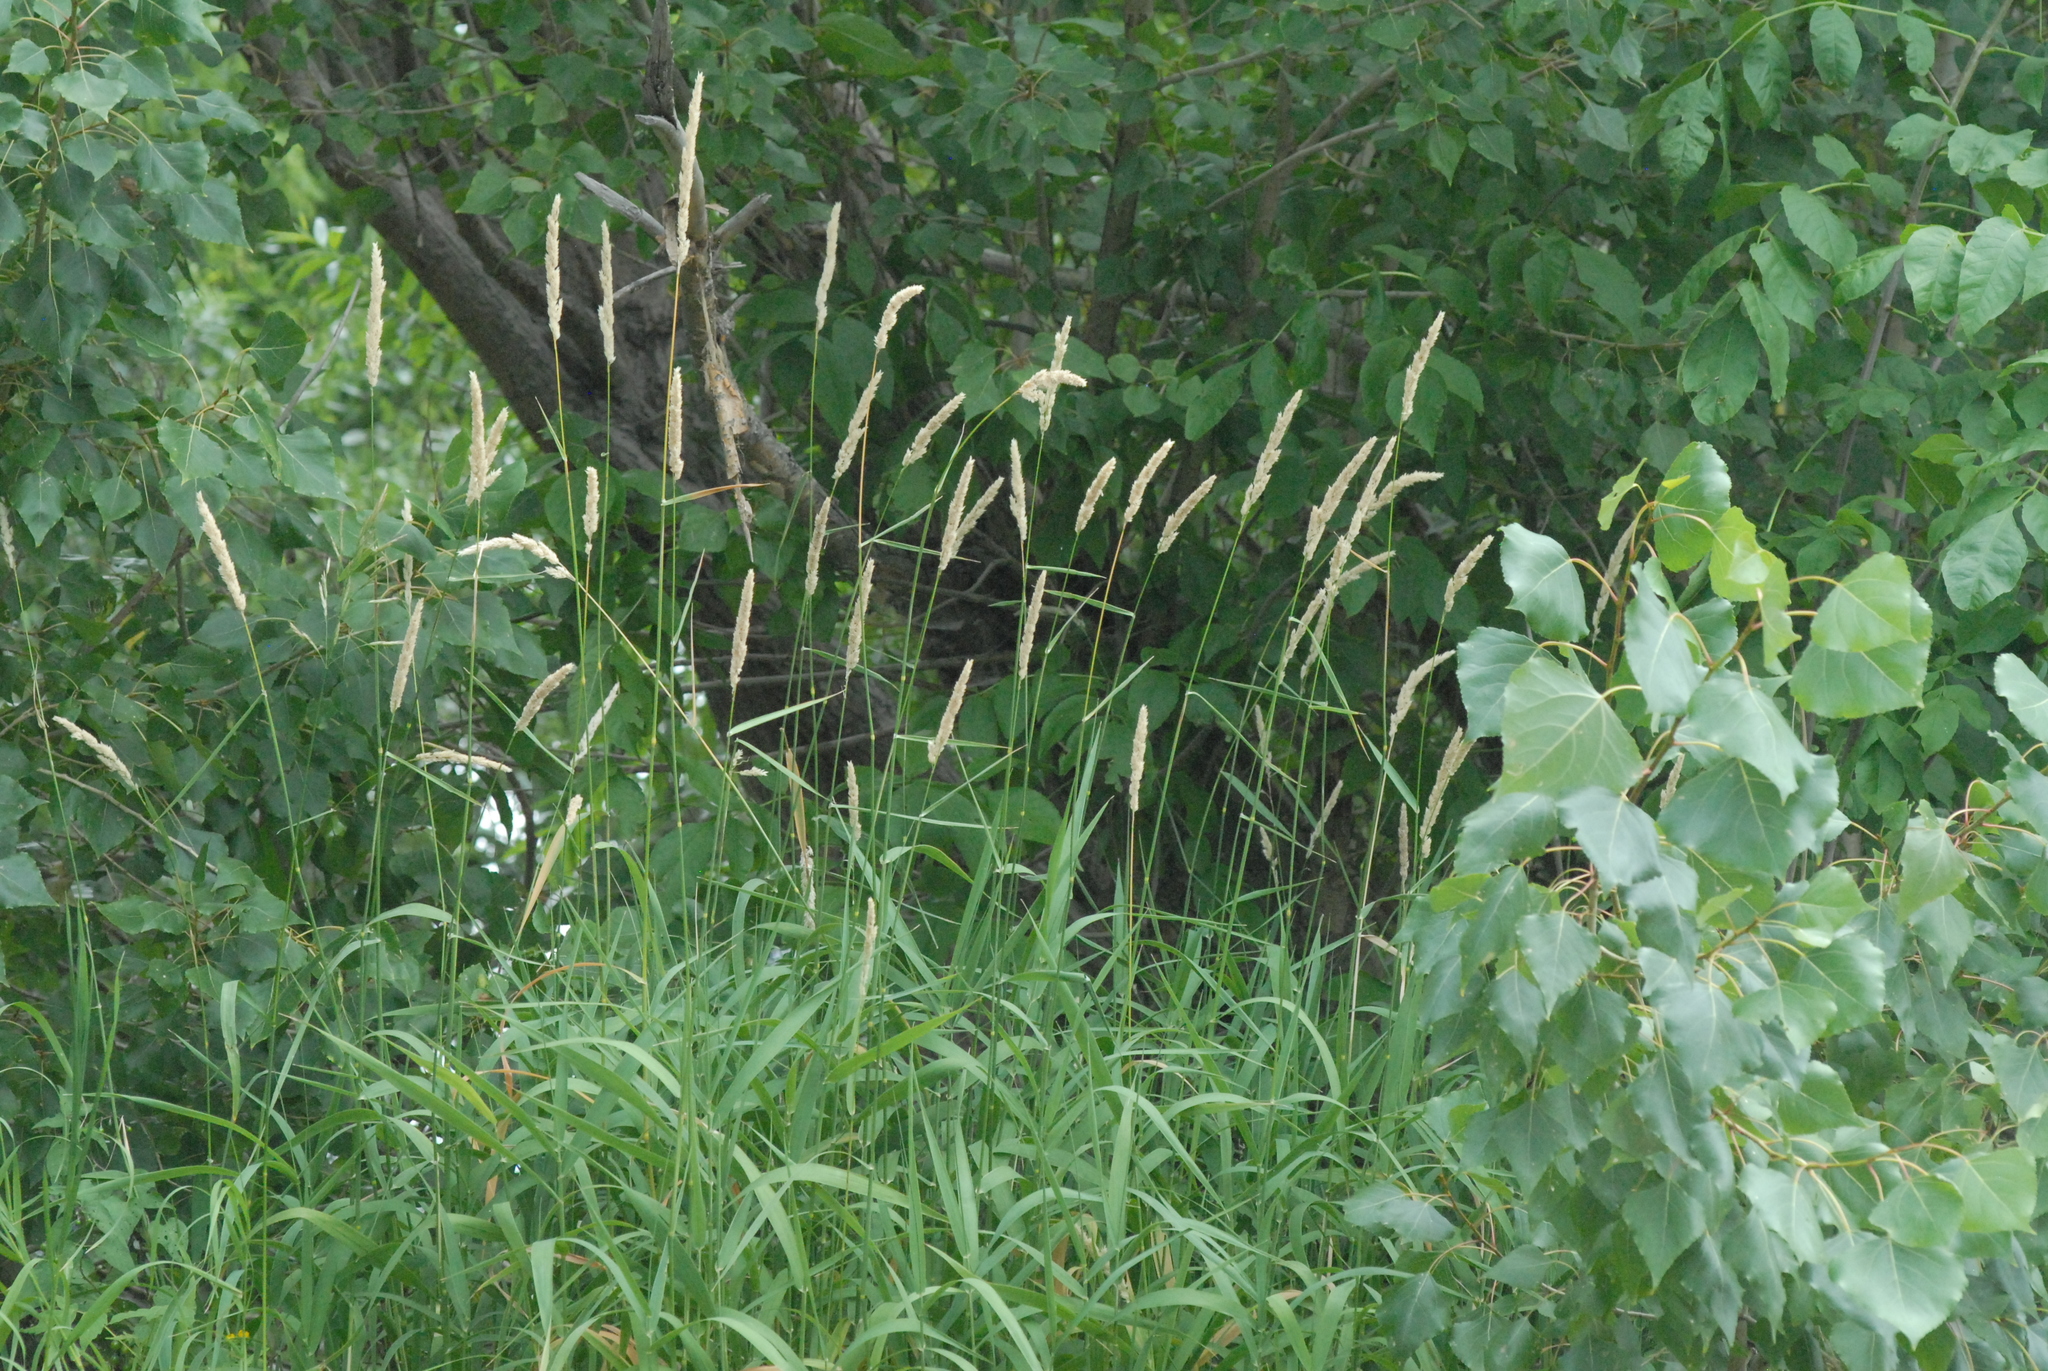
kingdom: Plantae
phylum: Tracheophyta
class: Liliopsida
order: Poales
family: Poaceae
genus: Phalaris
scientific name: Phalaris arundinacea
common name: Reed canary-grass
